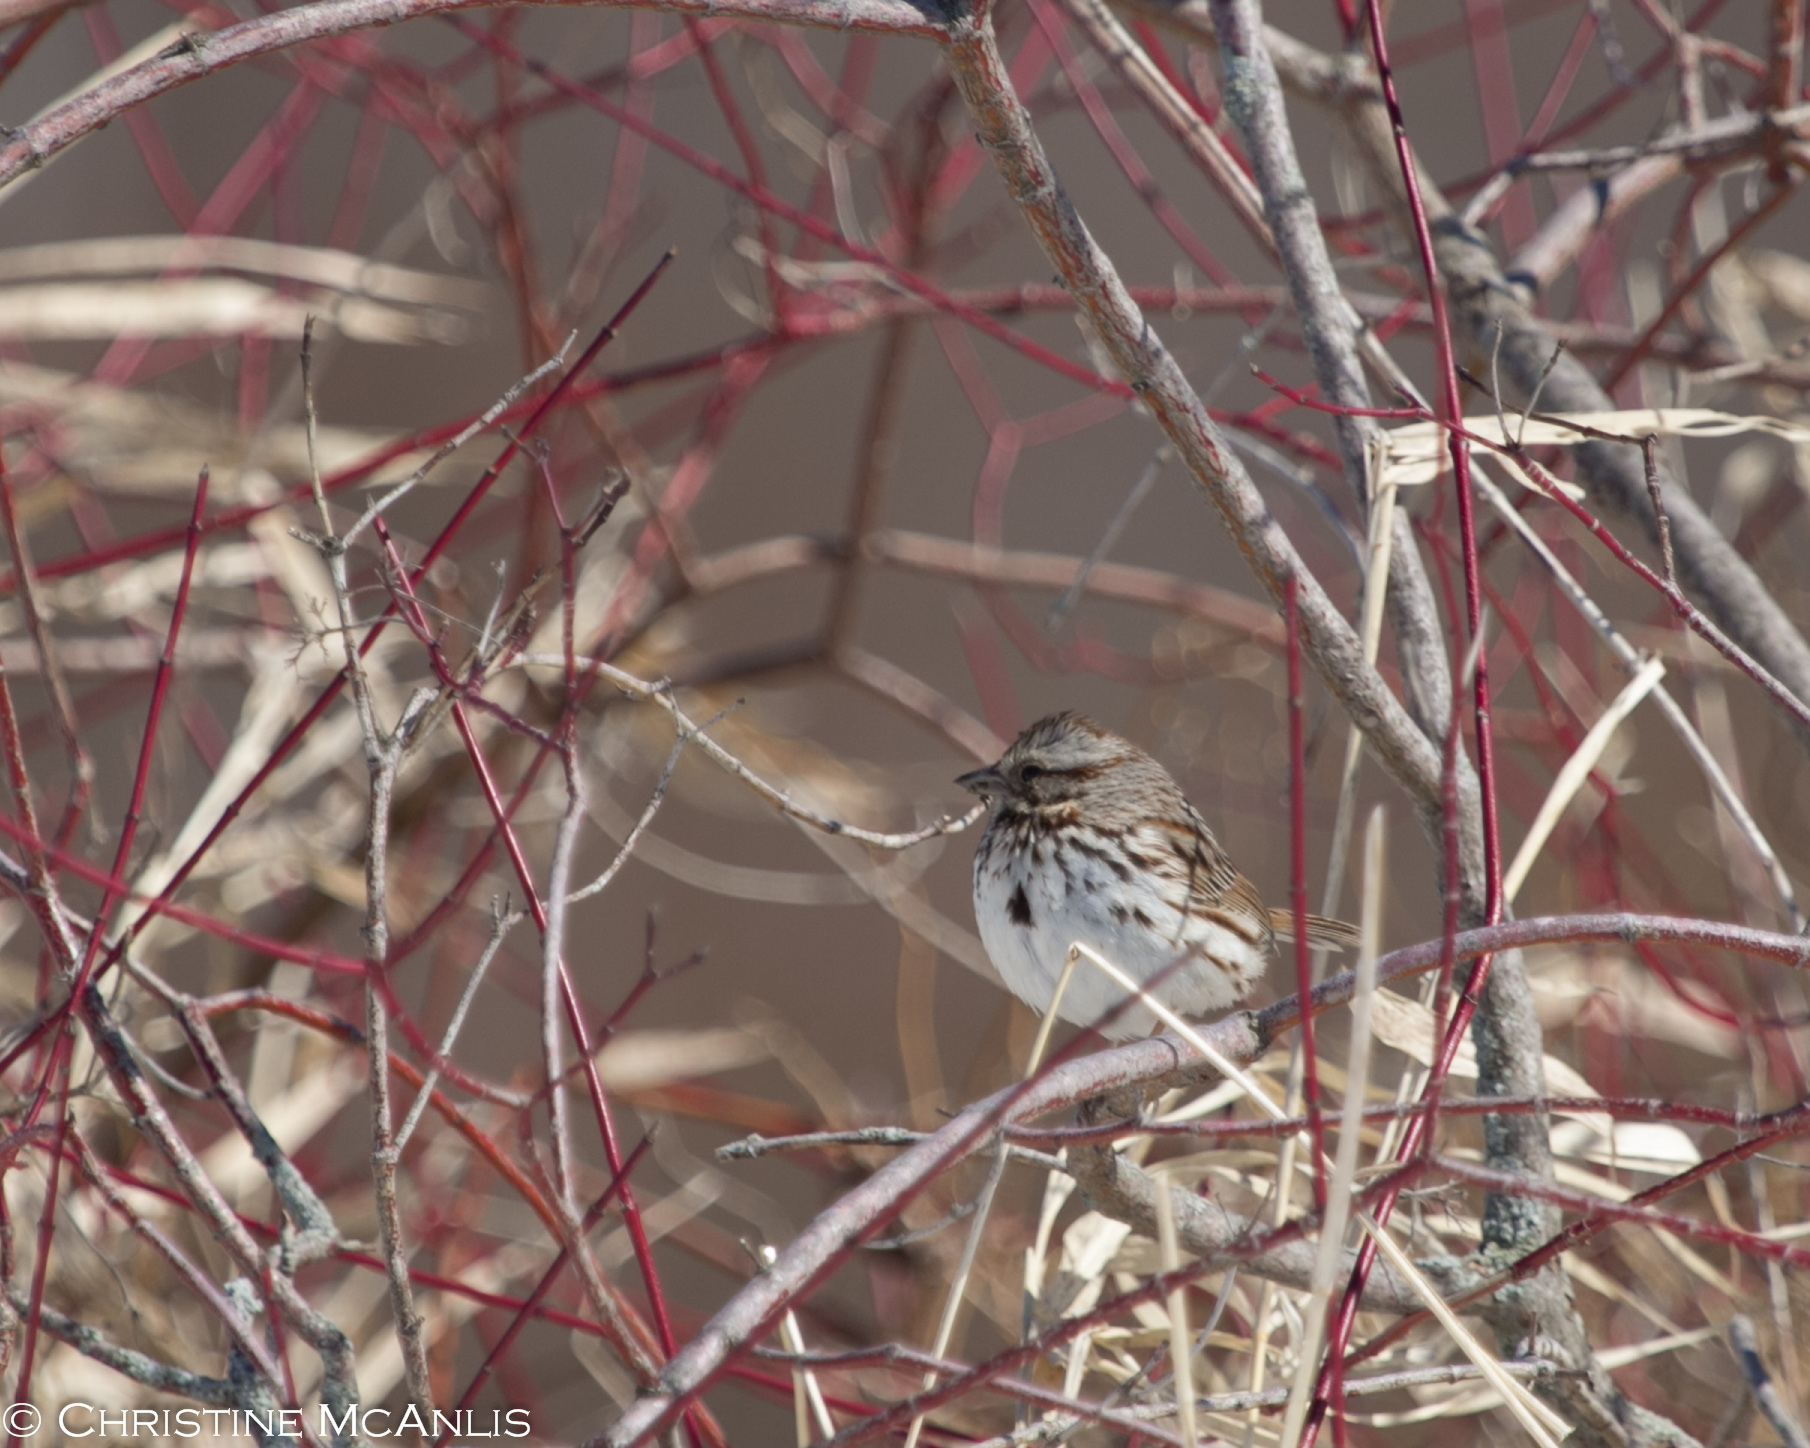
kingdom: Animalia
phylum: Chordata
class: Aves
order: Passeriformes
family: Passerellidae
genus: Melospiza
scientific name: Melospiza melodia
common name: Song sparrow
